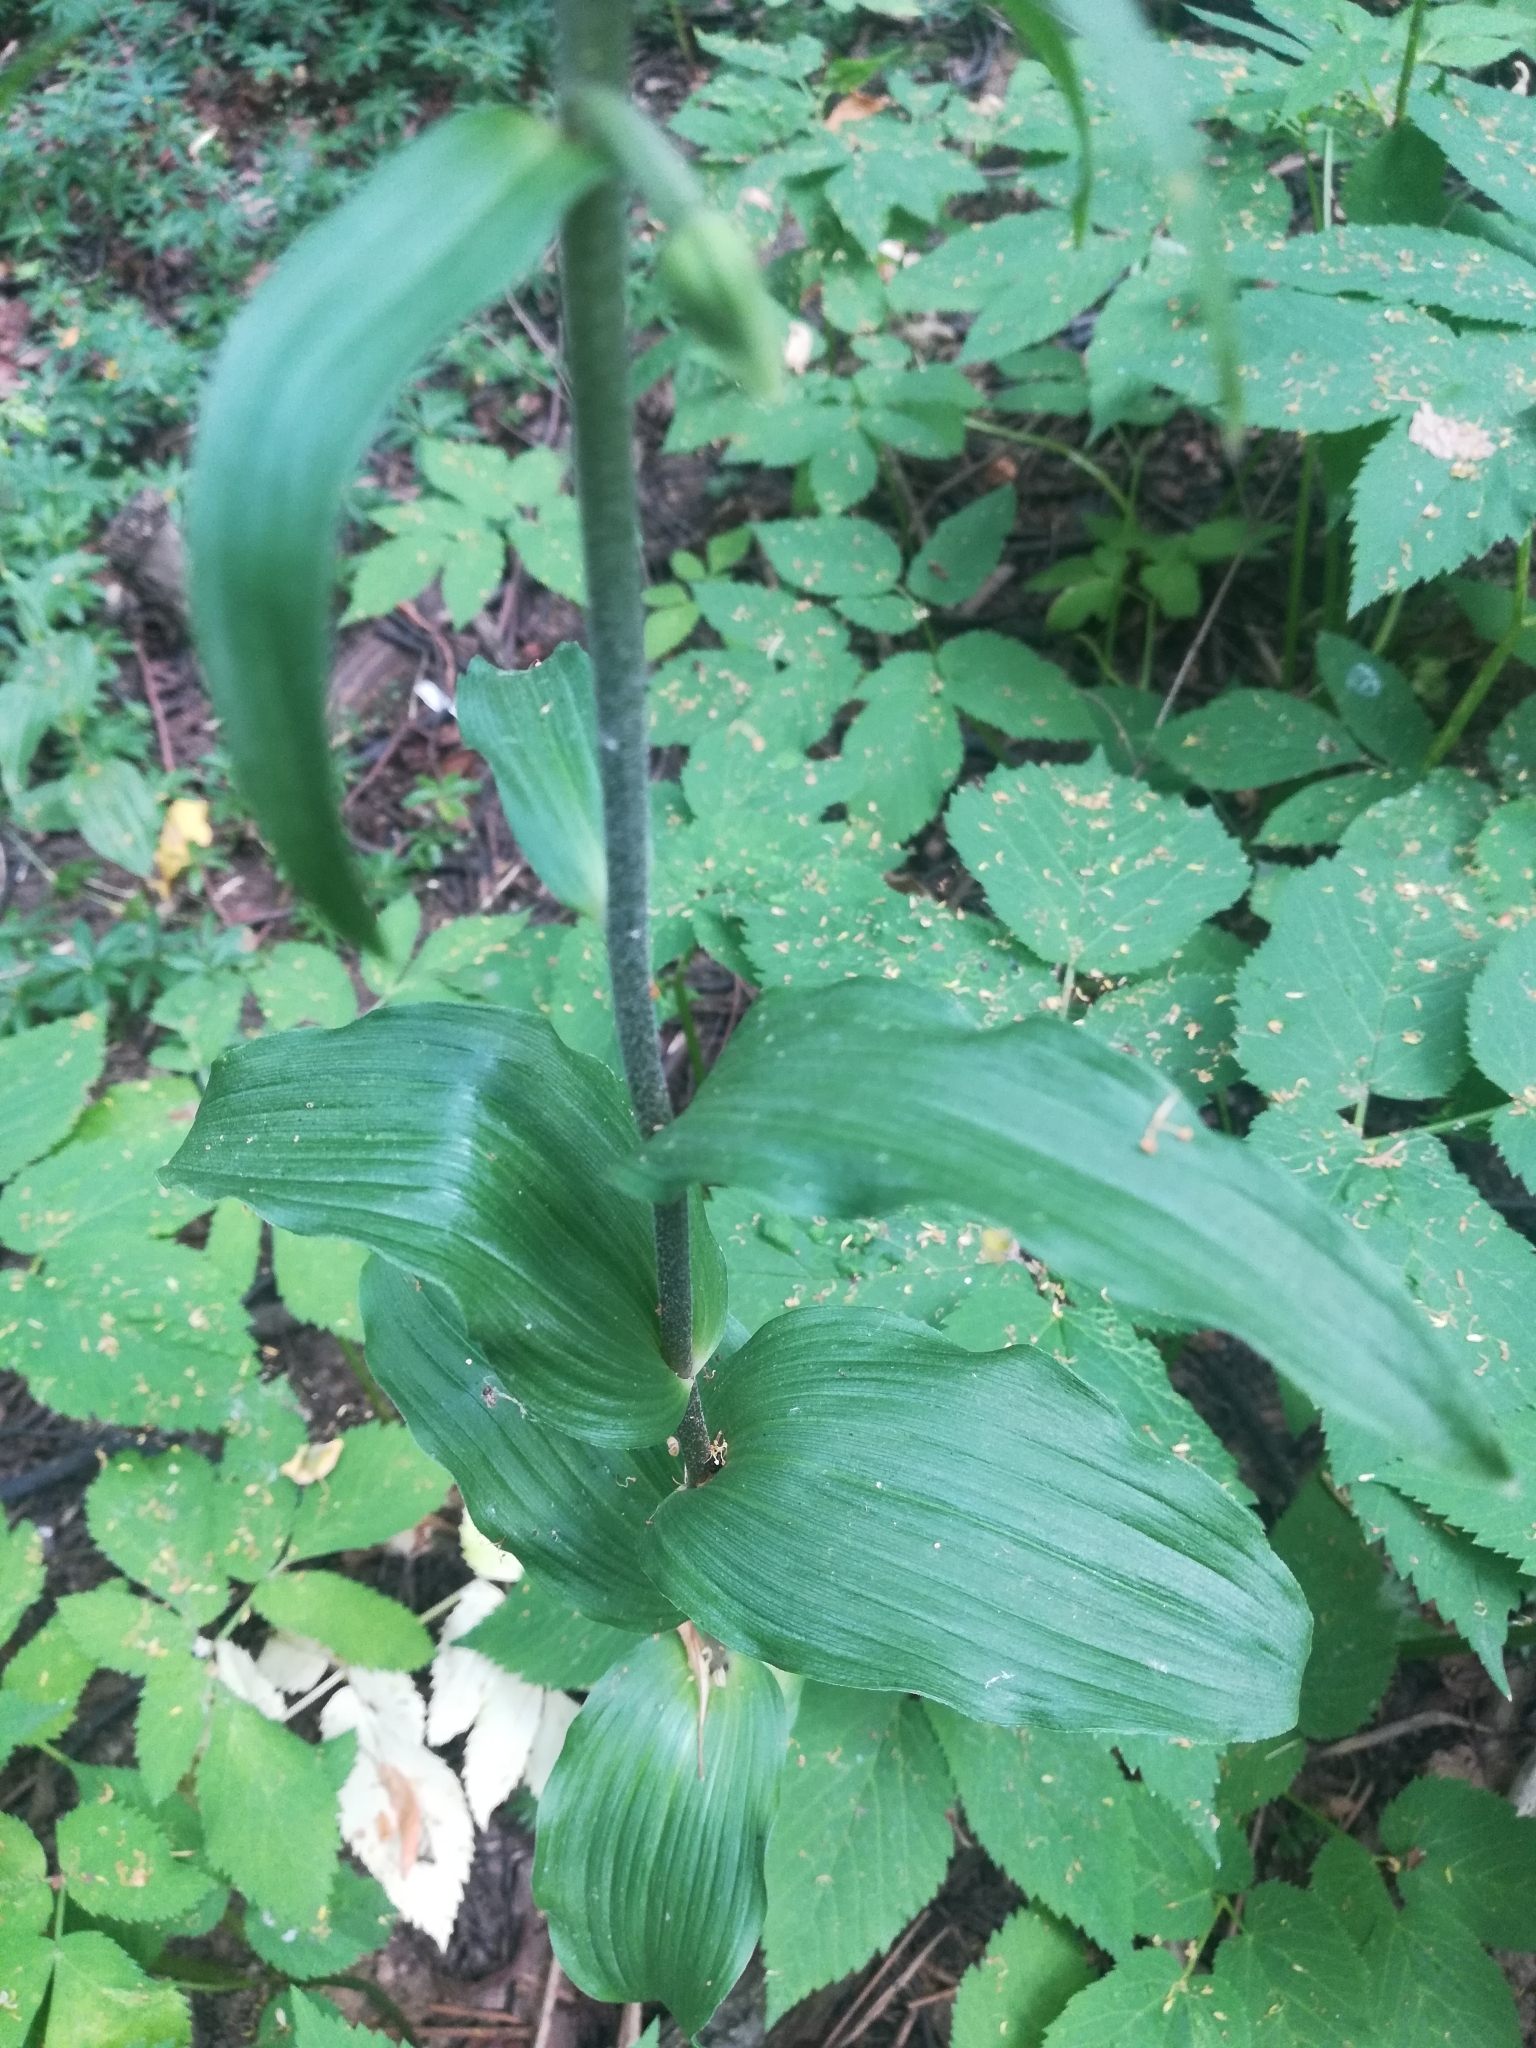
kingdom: Plantae
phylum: Tracheophyta
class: Liliopsida
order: Asparagales
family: Orchidaceae
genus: Epipactis
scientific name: Epipactis helleborine
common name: Broad-leaved helleborine
